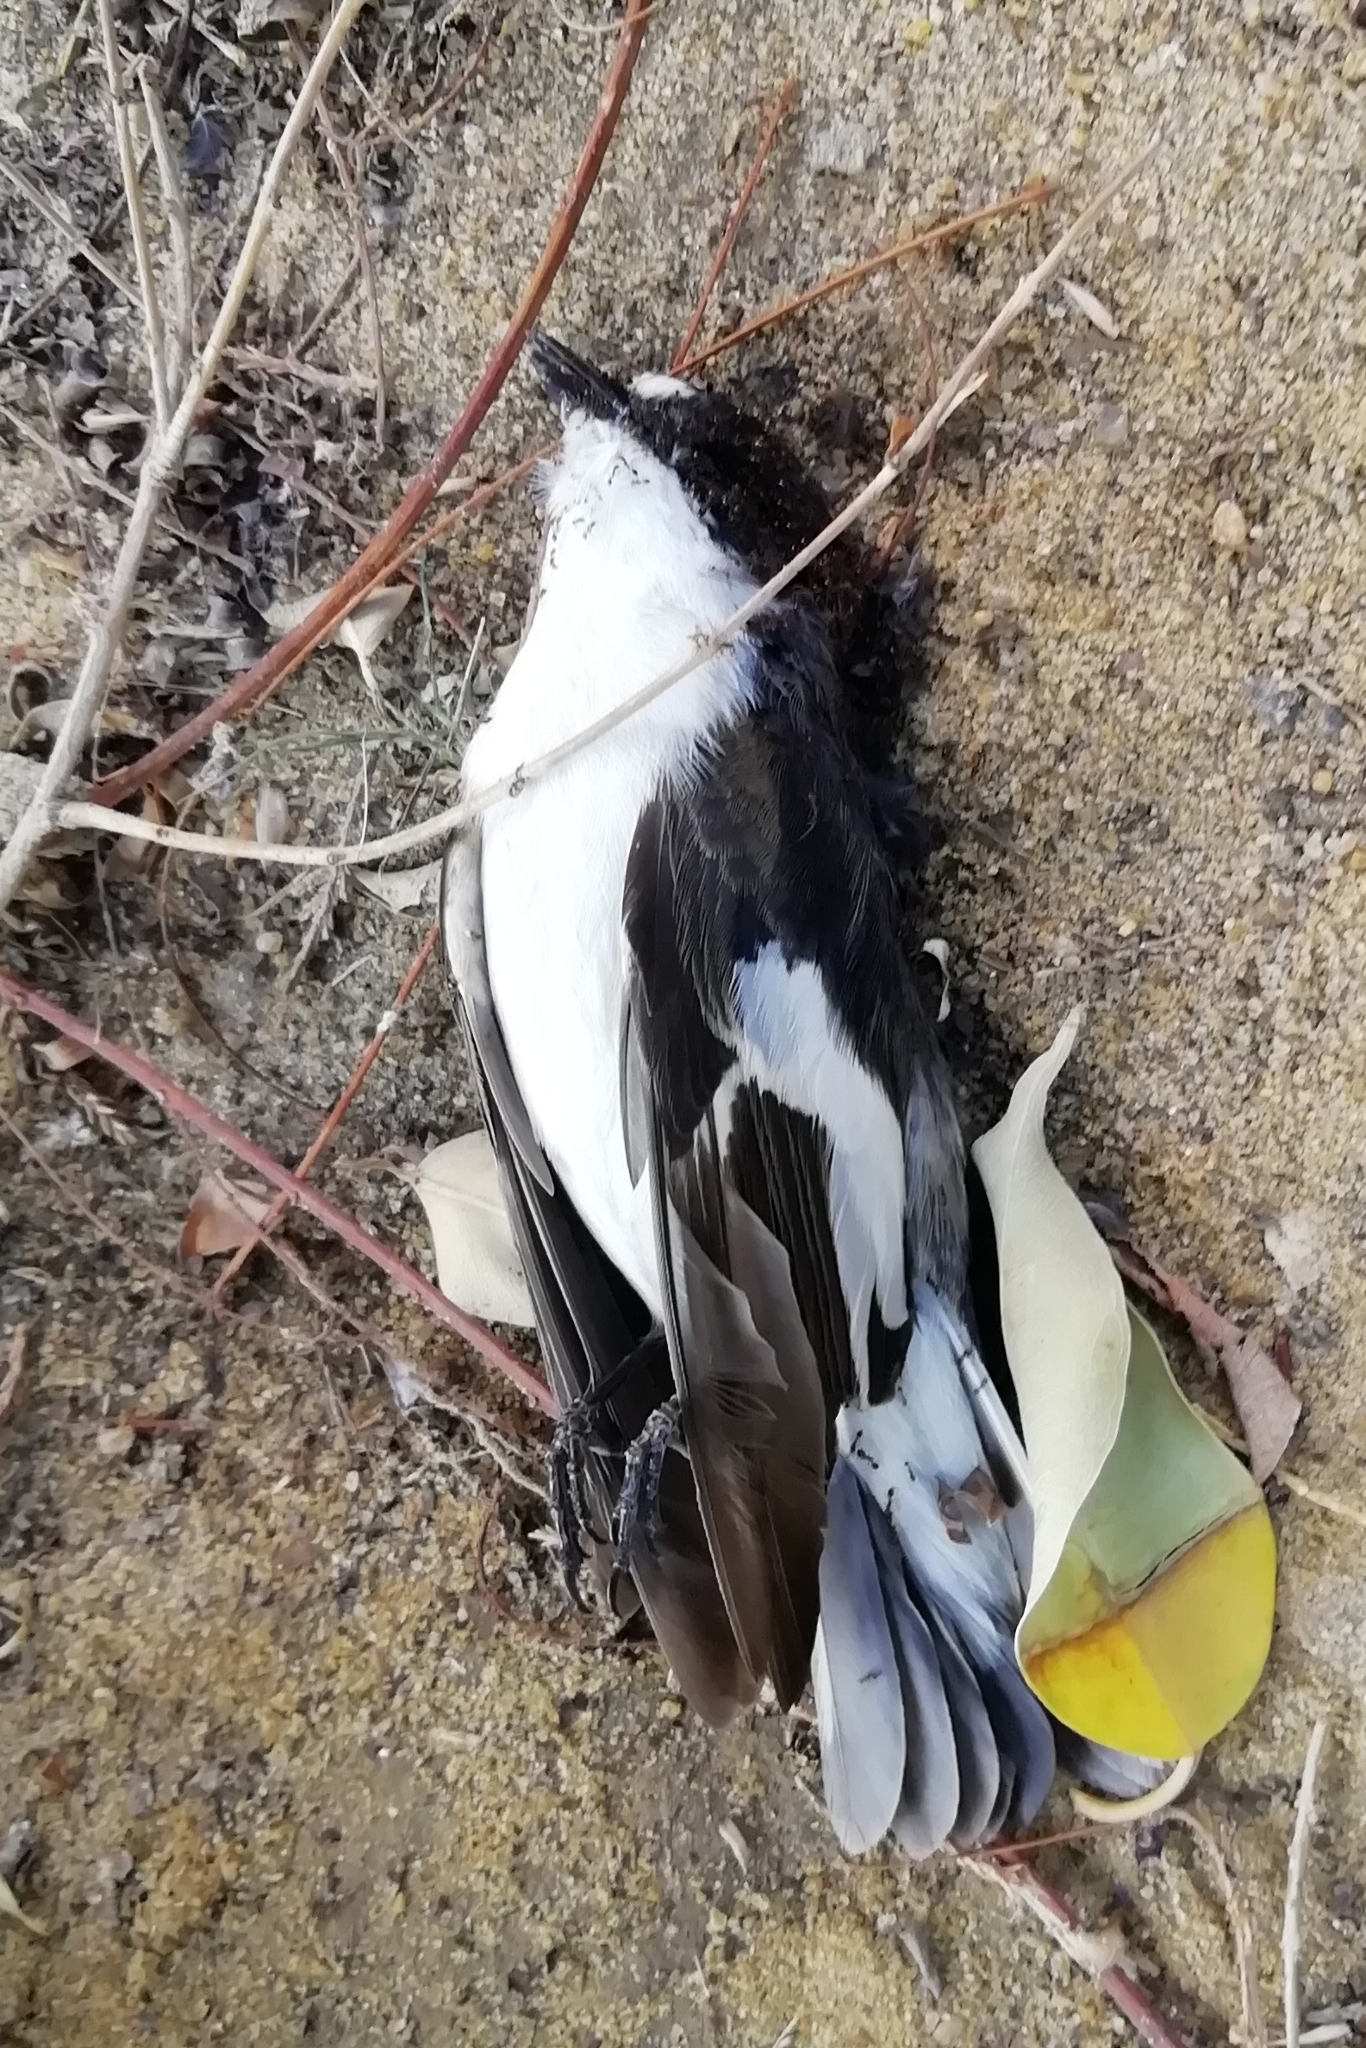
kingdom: Animalia
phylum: Chordata
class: Aves
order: Passeriformes
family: Muscicapidae
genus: Ficedula
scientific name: Ficedula hypoleuca
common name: European pied flycatcher
